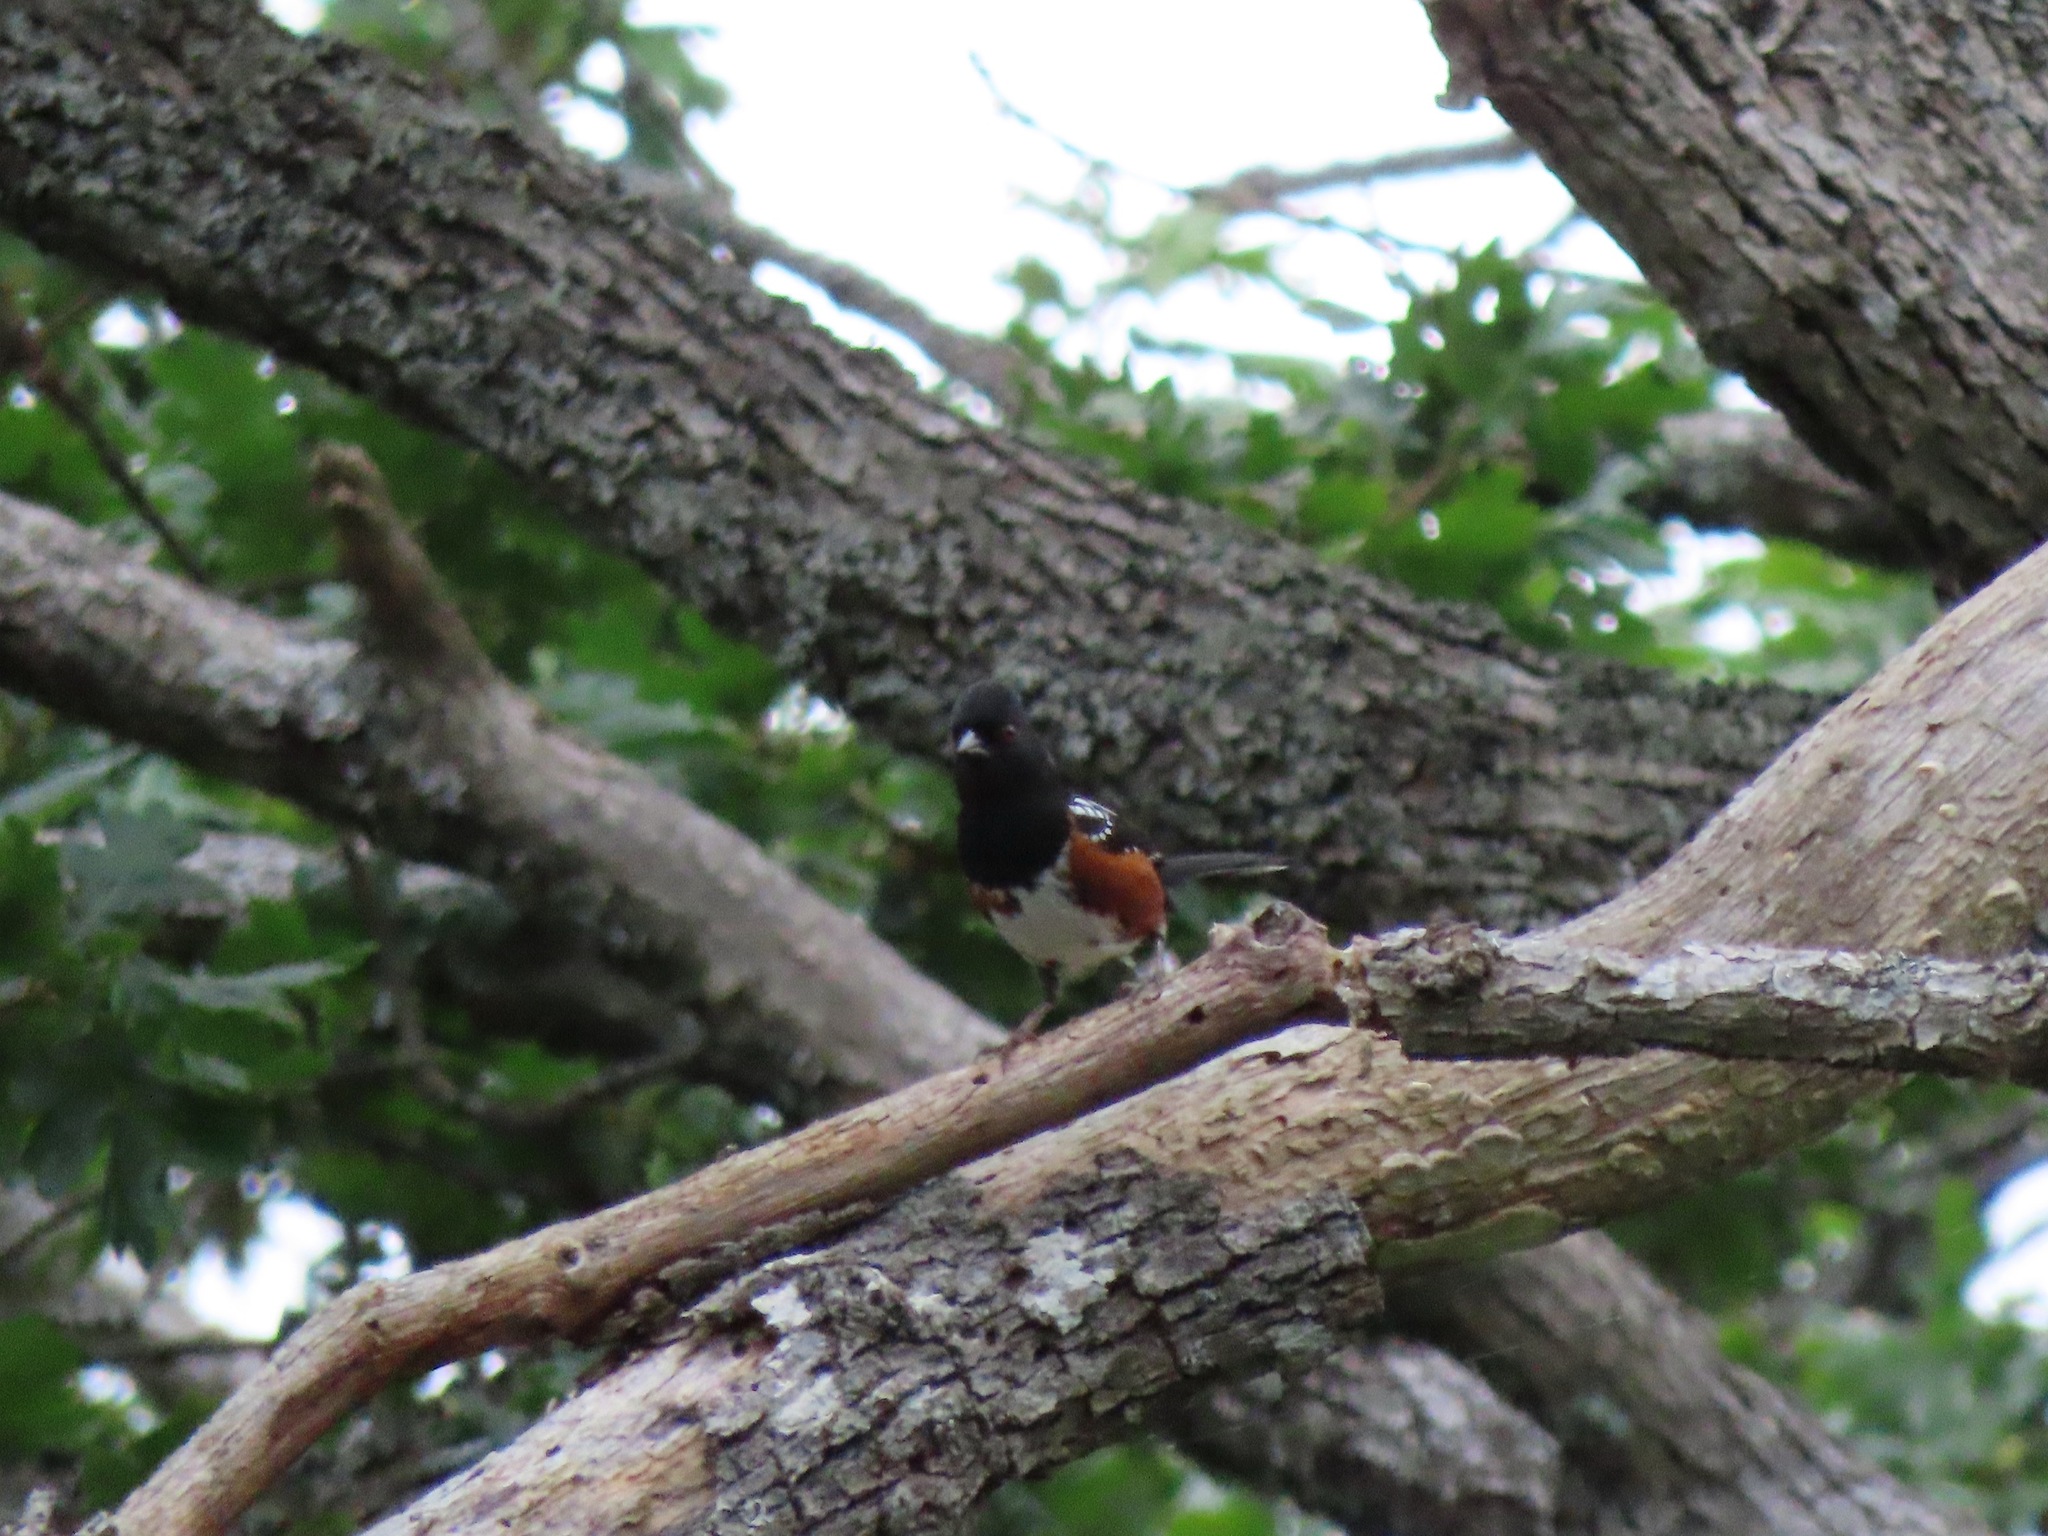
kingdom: Animalia
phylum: Chordata
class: Aves
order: Passeriformes
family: Passerellidae
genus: Pipilo
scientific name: Pipilo maculatus
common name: Spotted towhee
